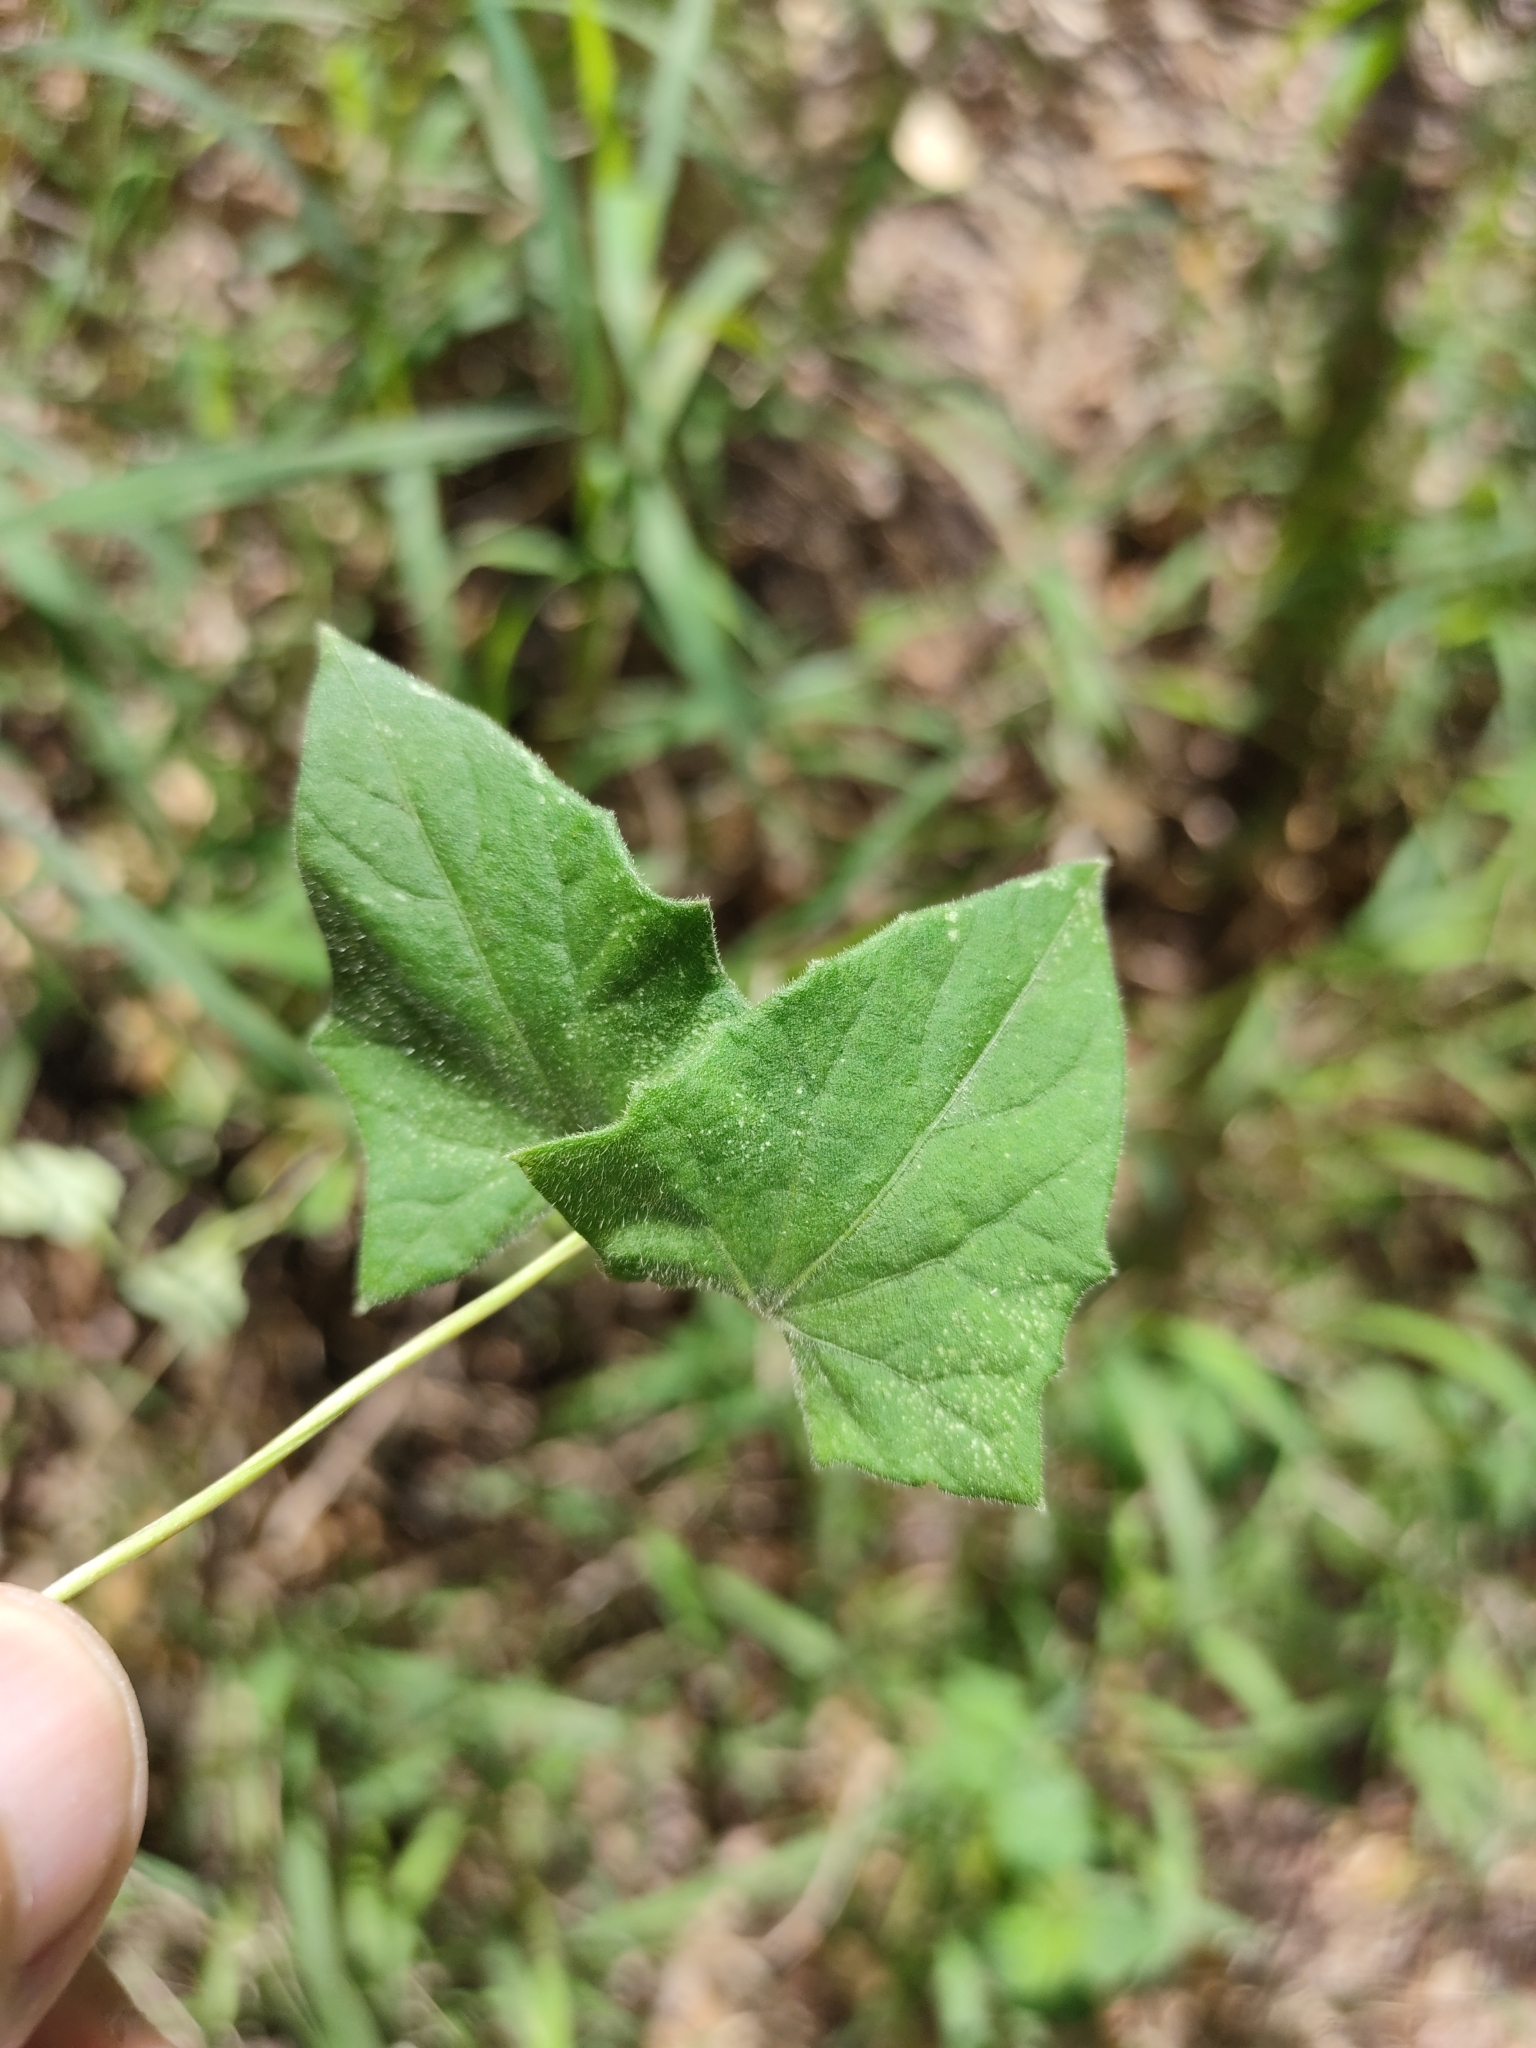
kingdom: Plantae
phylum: Tracheophyta
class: Magnoliopsida
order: Lamiales
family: Acanthaceae
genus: Thunbergia
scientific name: Thunbergia alata
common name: Blackeyed susan vine
